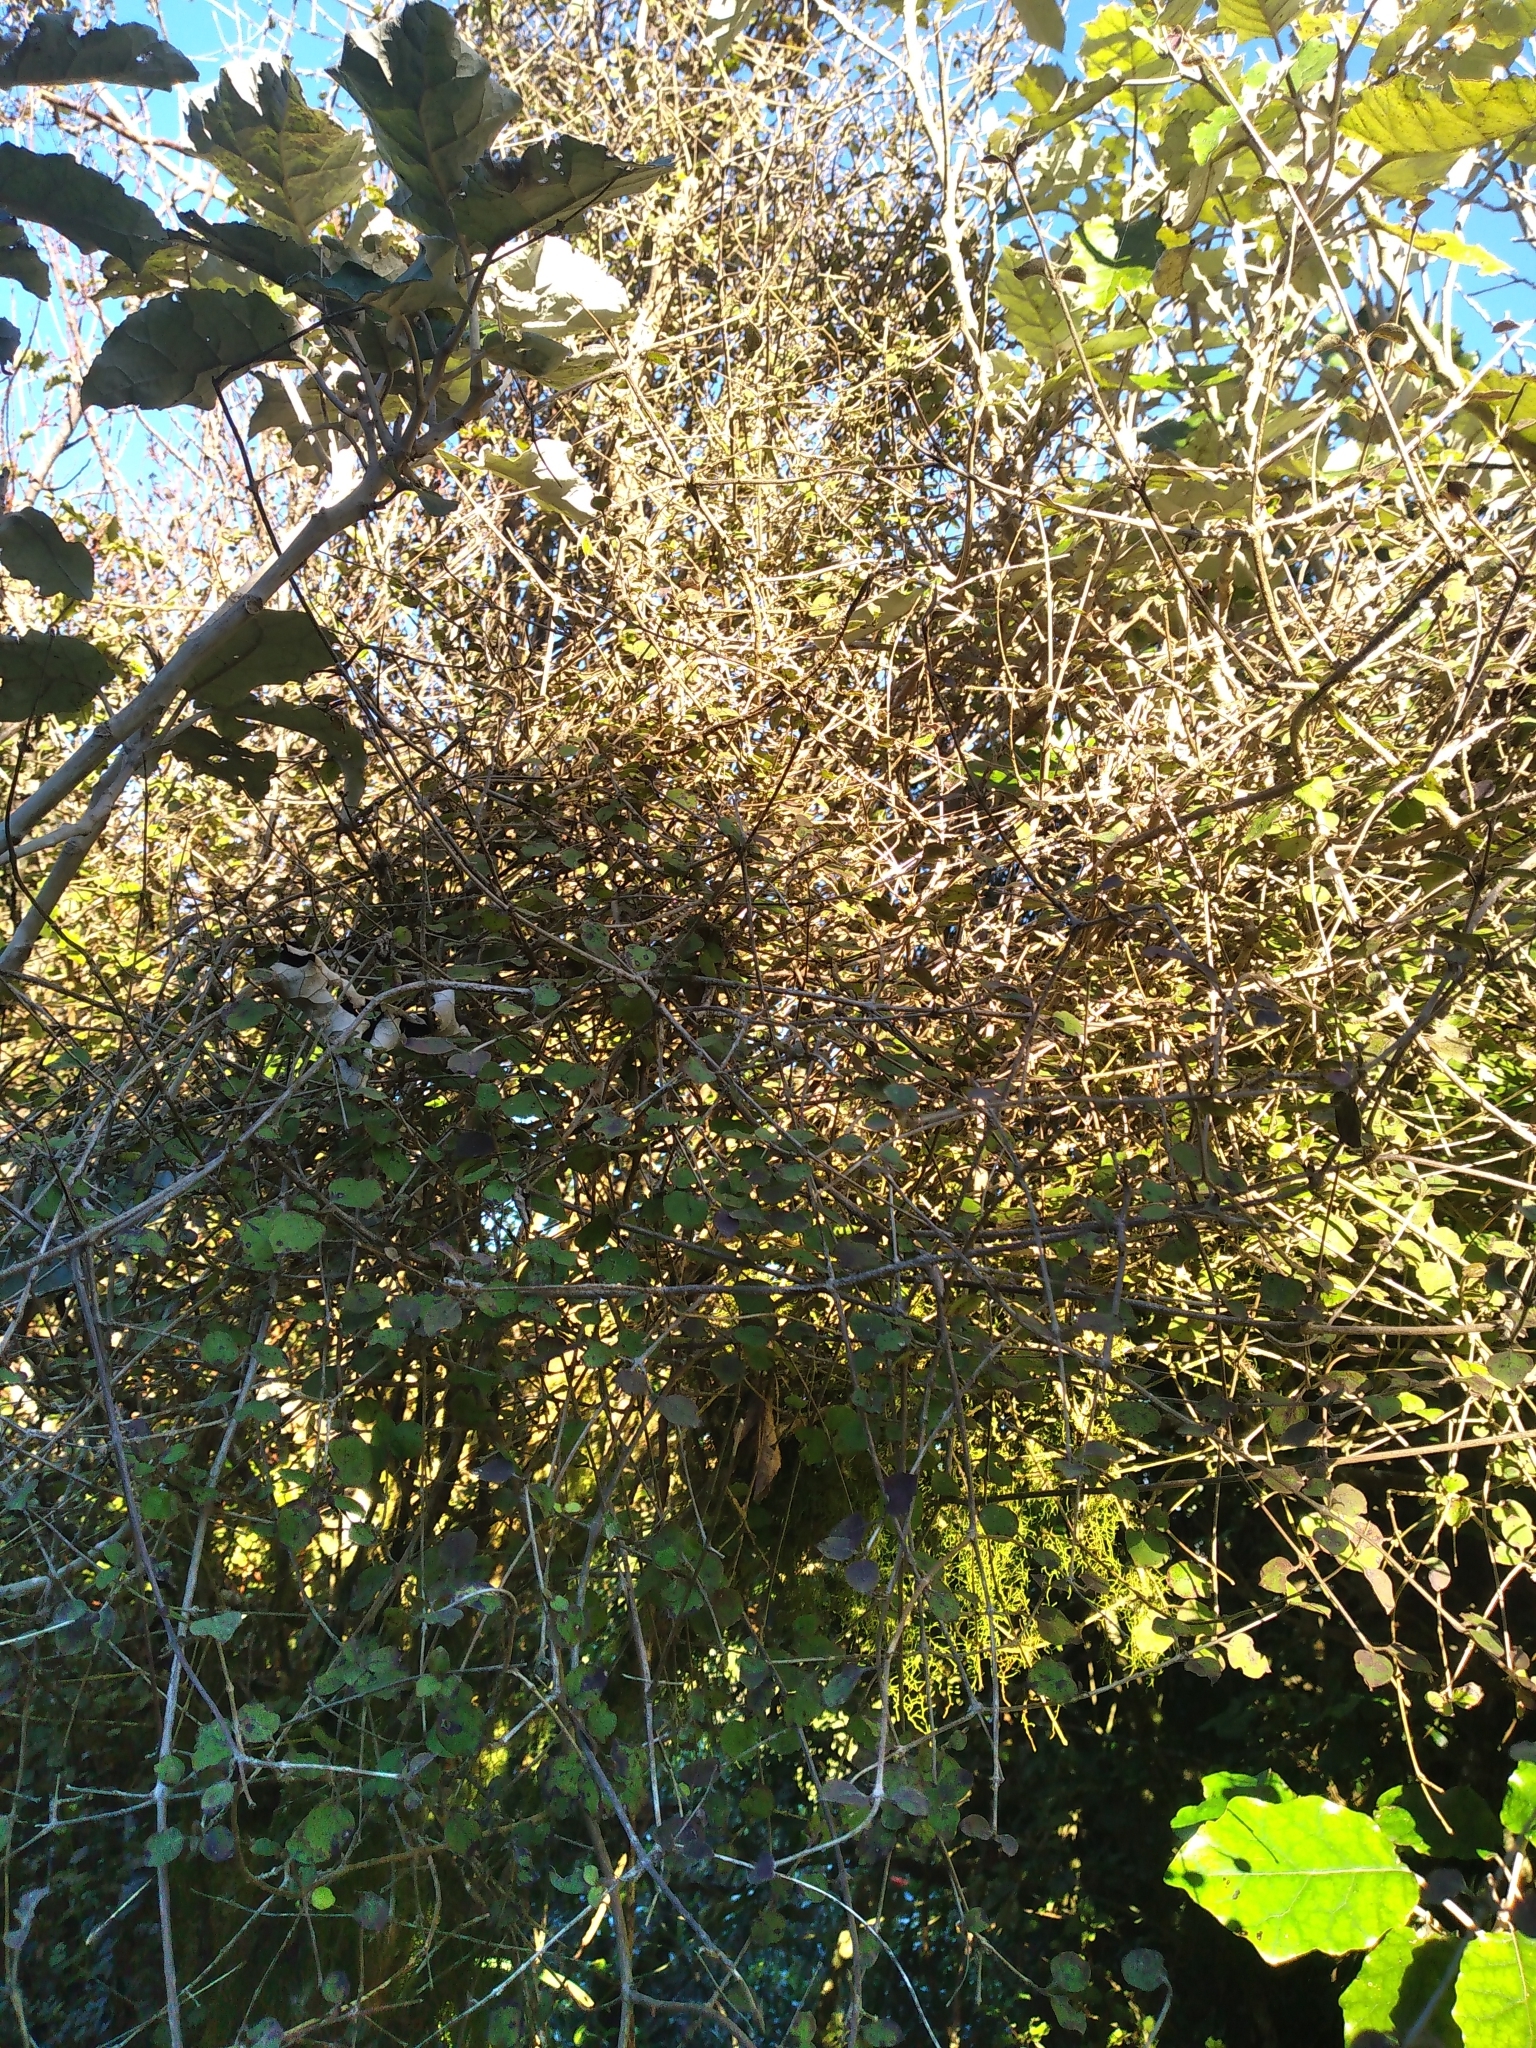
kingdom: Plantae
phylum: Tracheophyta
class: Magnoliopsida
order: Gentianales
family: Rubiaceae
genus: Coprosma
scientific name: Coprosma rotundifolia
